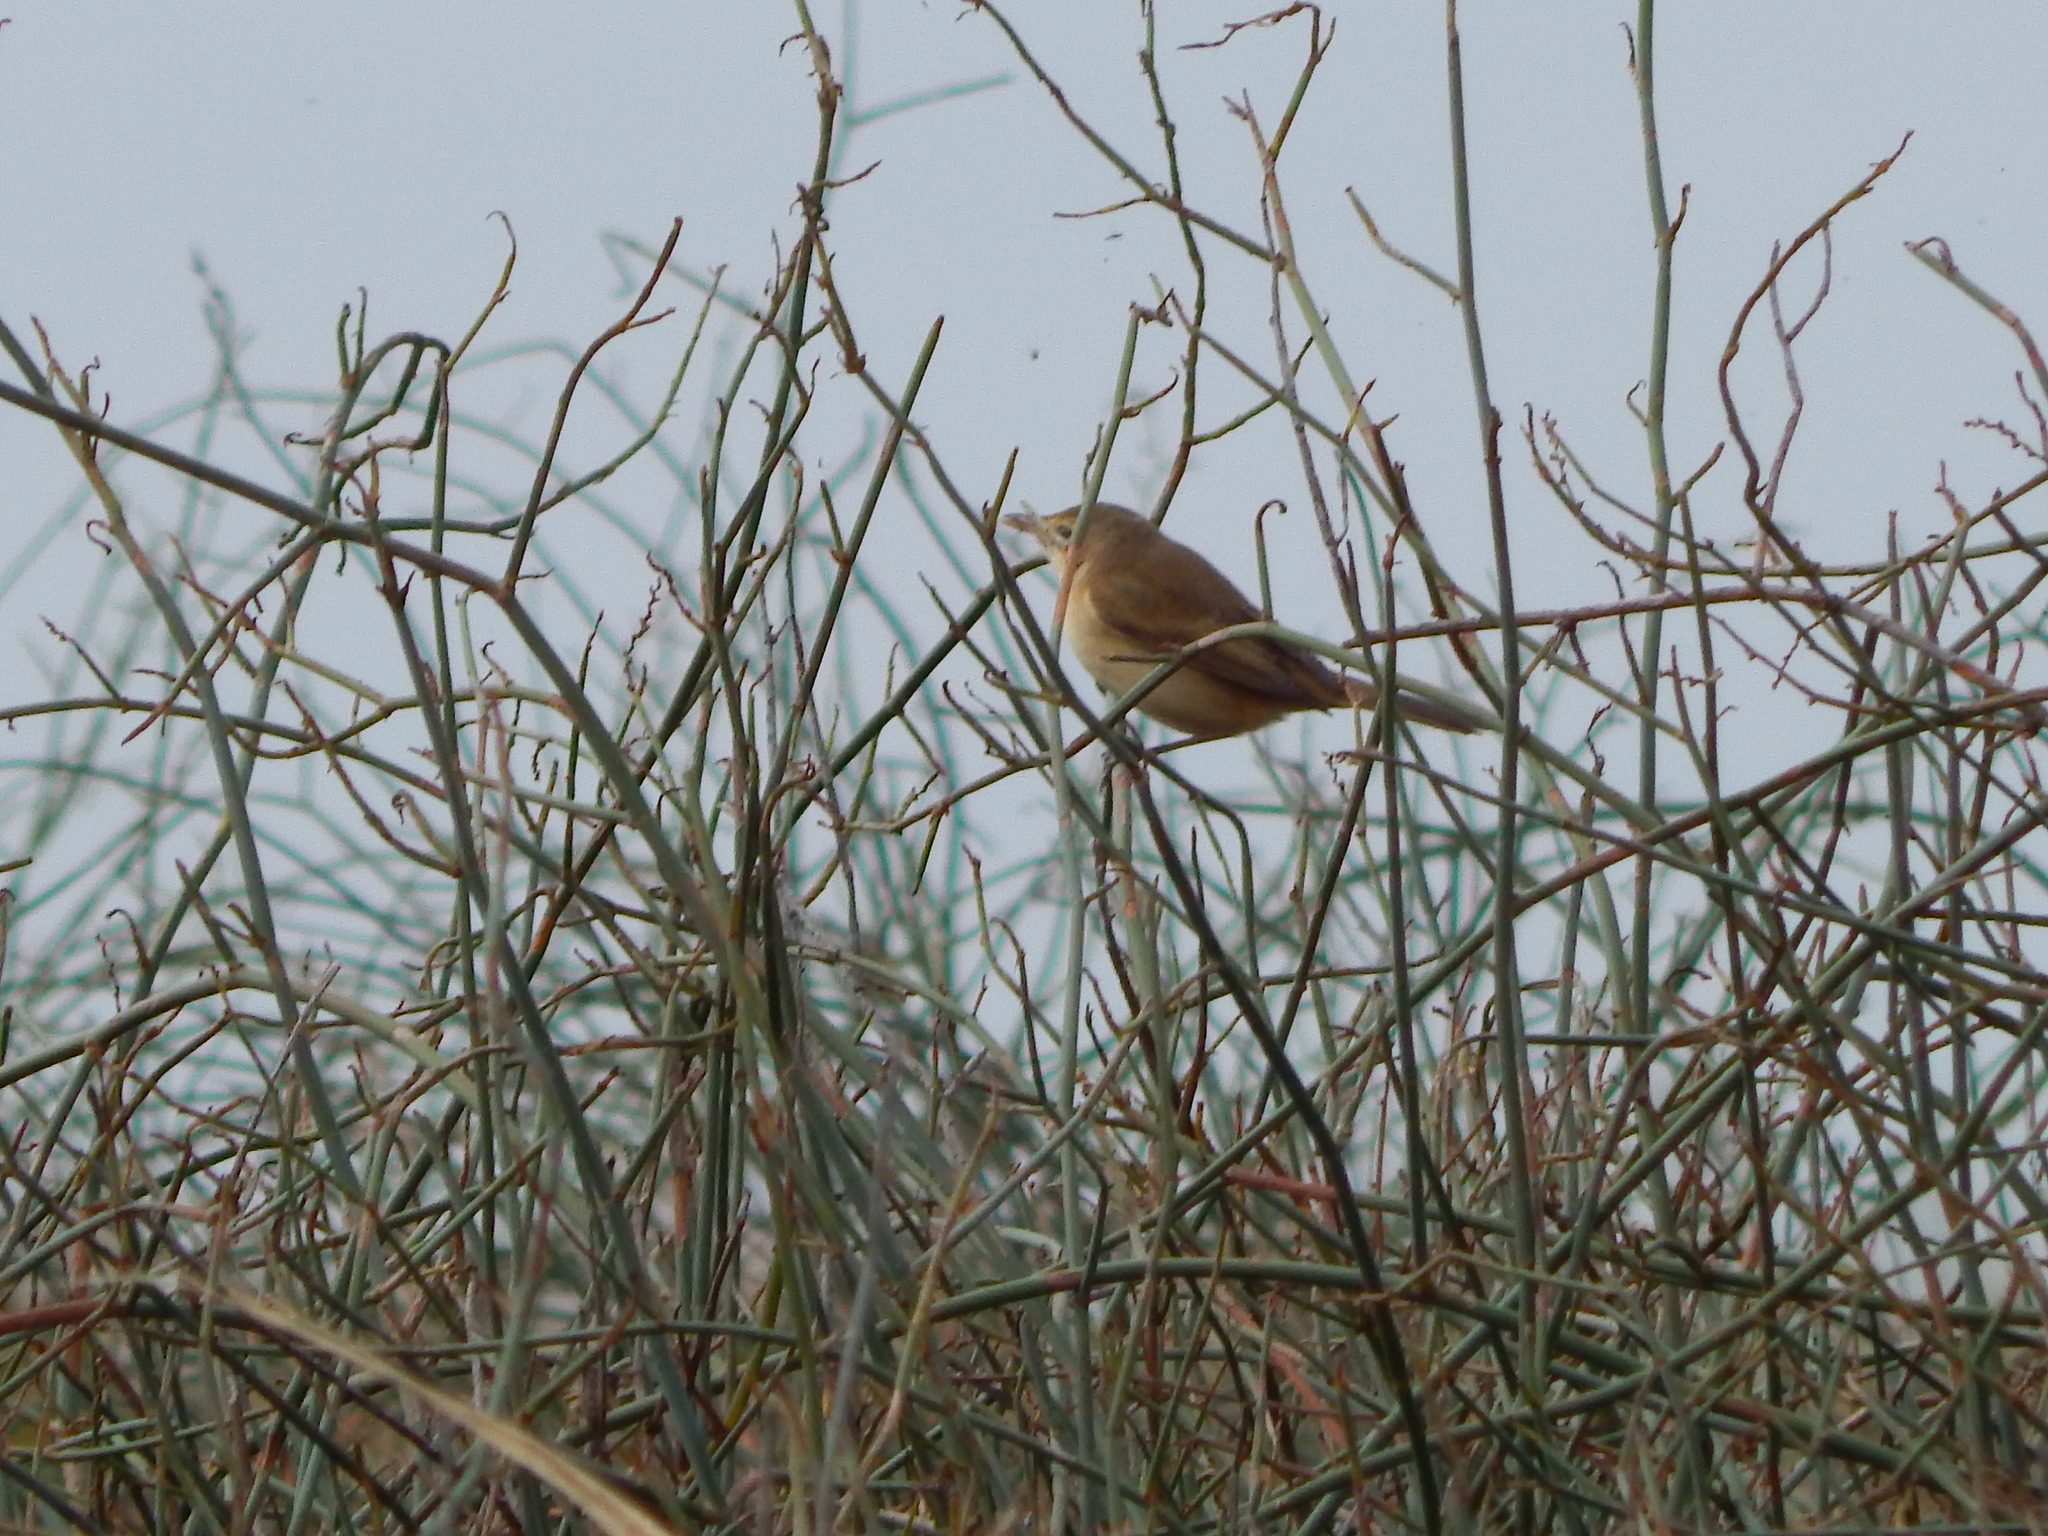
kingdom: Animalia
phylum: Chordata
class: Aves
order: Passeriformes
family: Acrocephalidae
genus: Acrocephalus
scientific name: Acrocephalus australis
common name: Australian reed warbler
